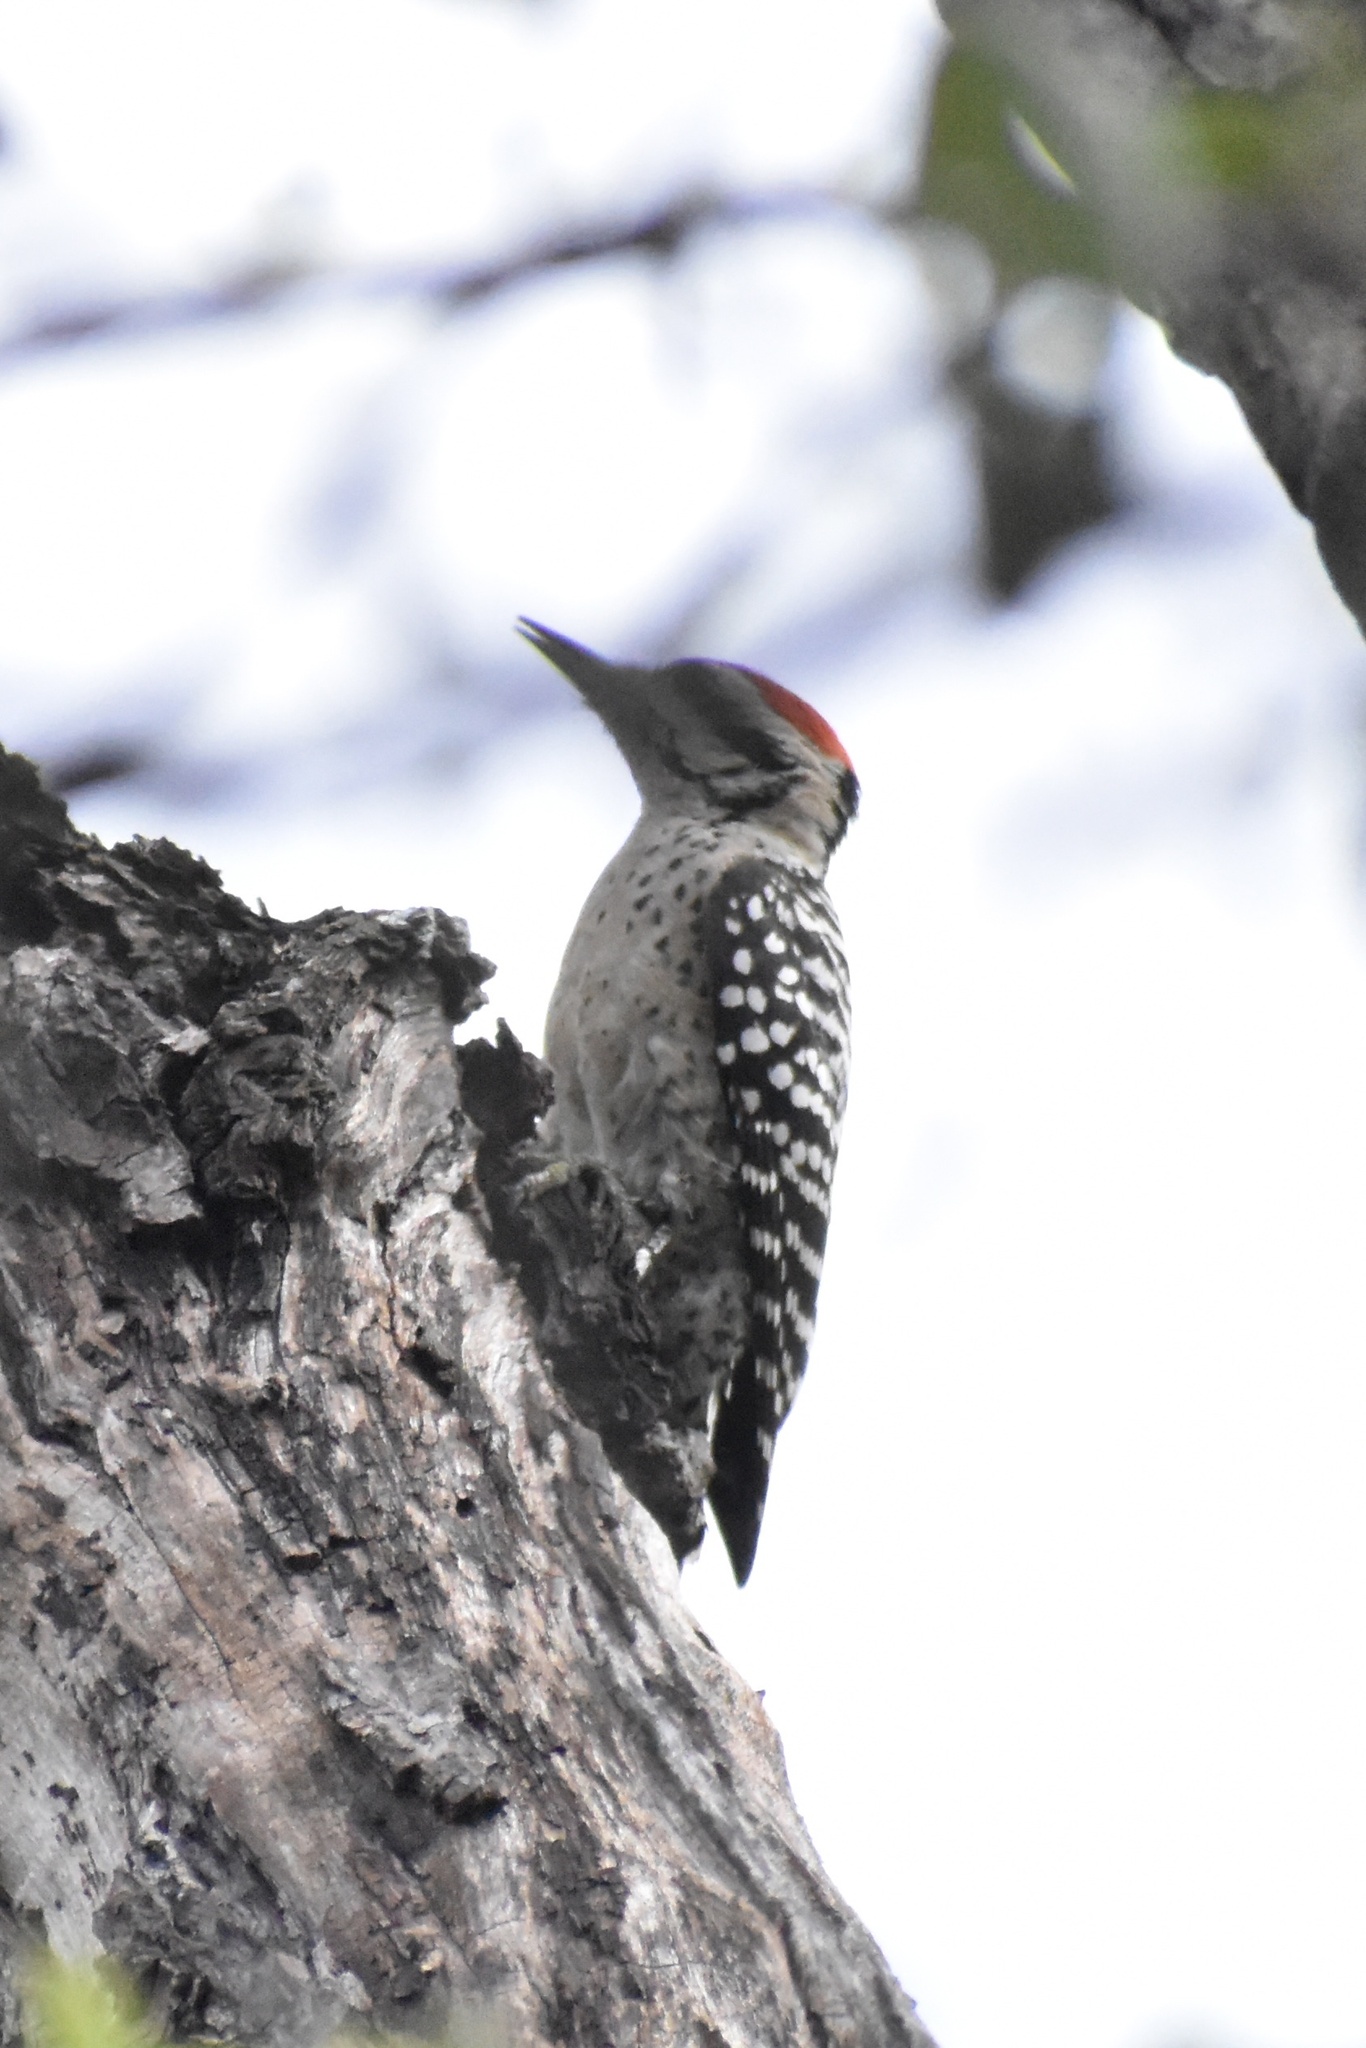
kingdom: Animalia
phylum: Chordata
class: Aves
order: Piciformes
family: Picidae
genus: Dryobates
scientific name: Dryobates scalaris
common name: Ladder-backed woodpecker
